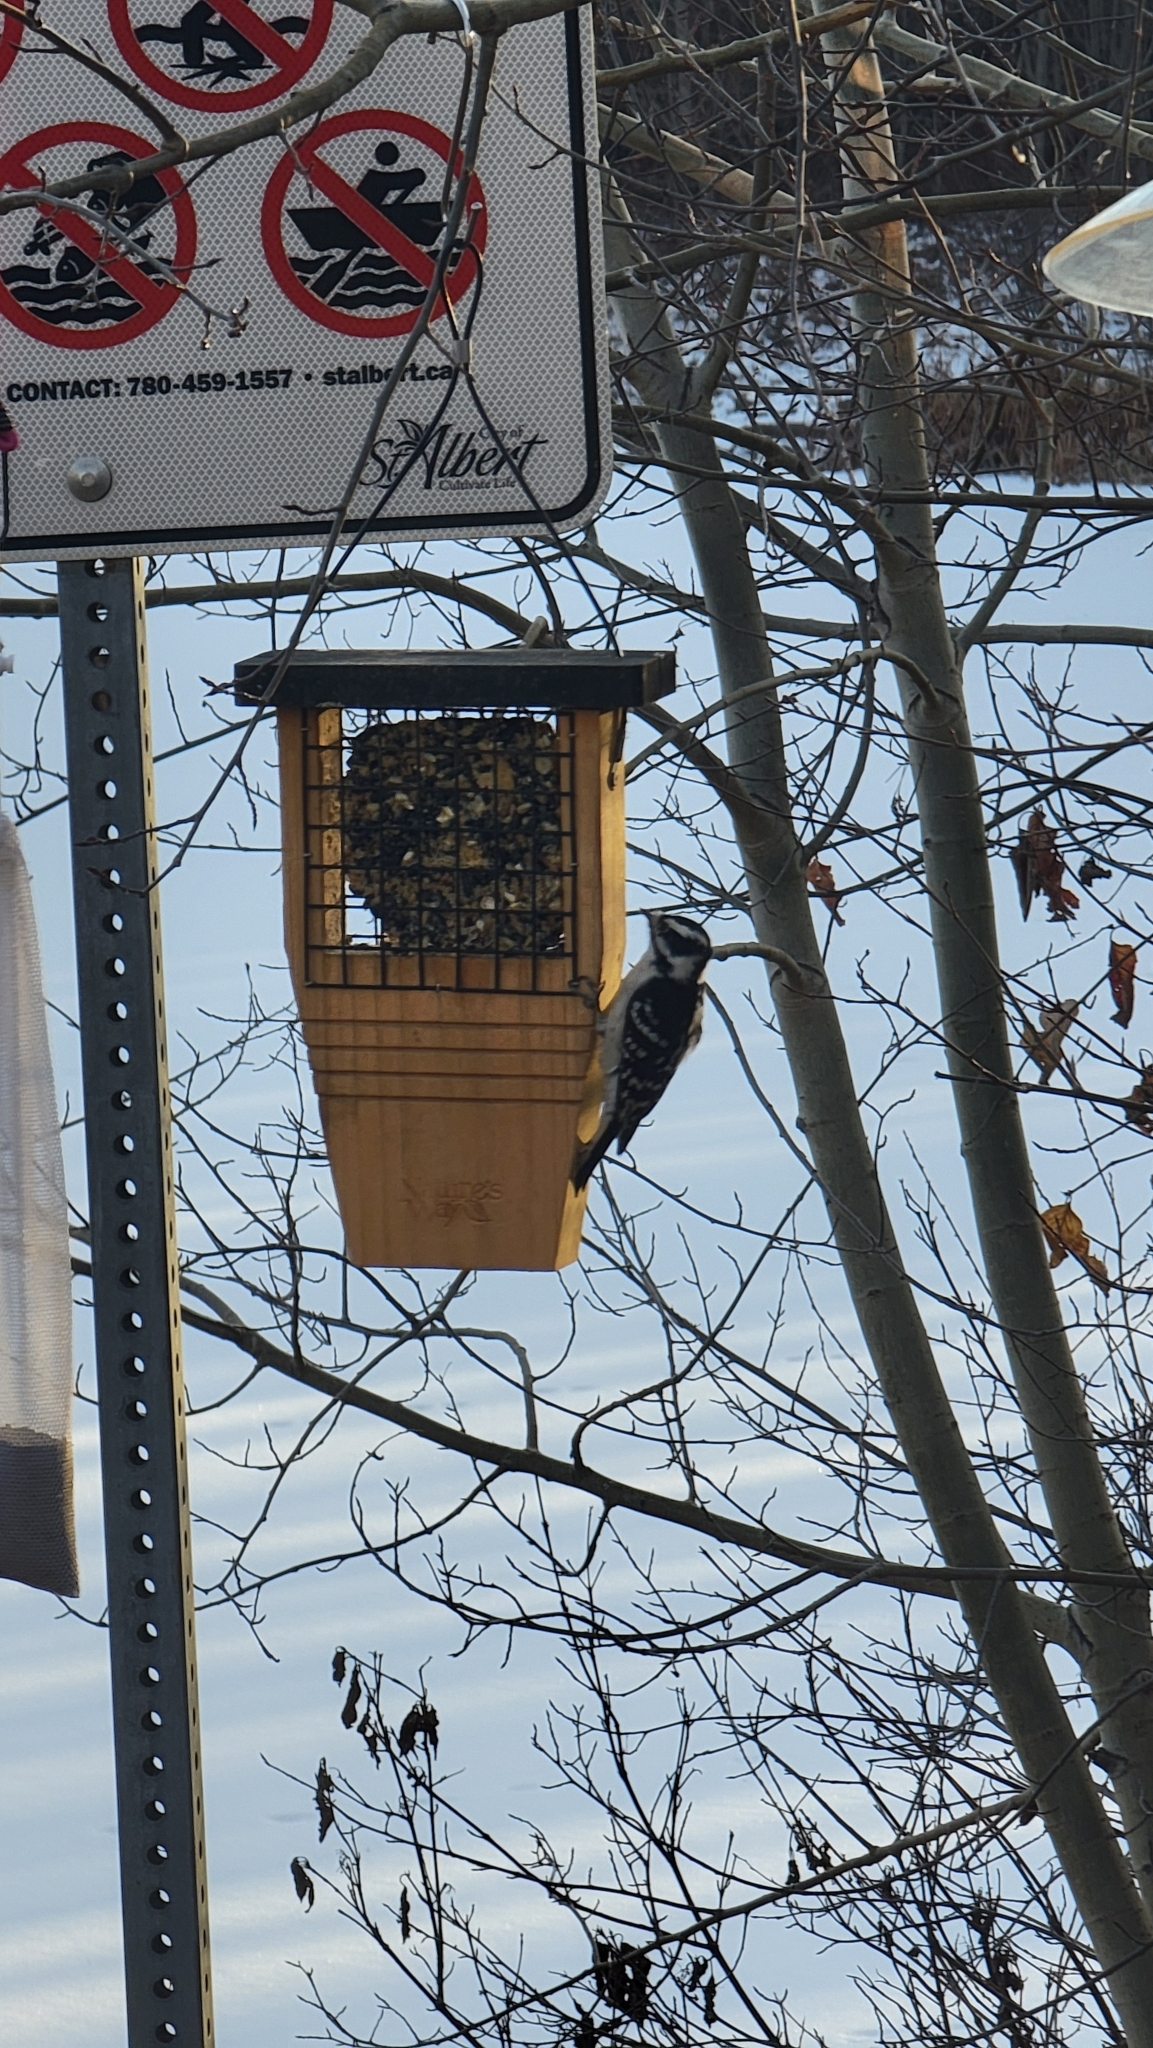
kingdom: Animalia
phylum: Chordata
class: Aves
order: Piciformes
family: Picidae
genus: Dryobates
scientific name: Dryobates pubescens
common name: Downy woodpecker
